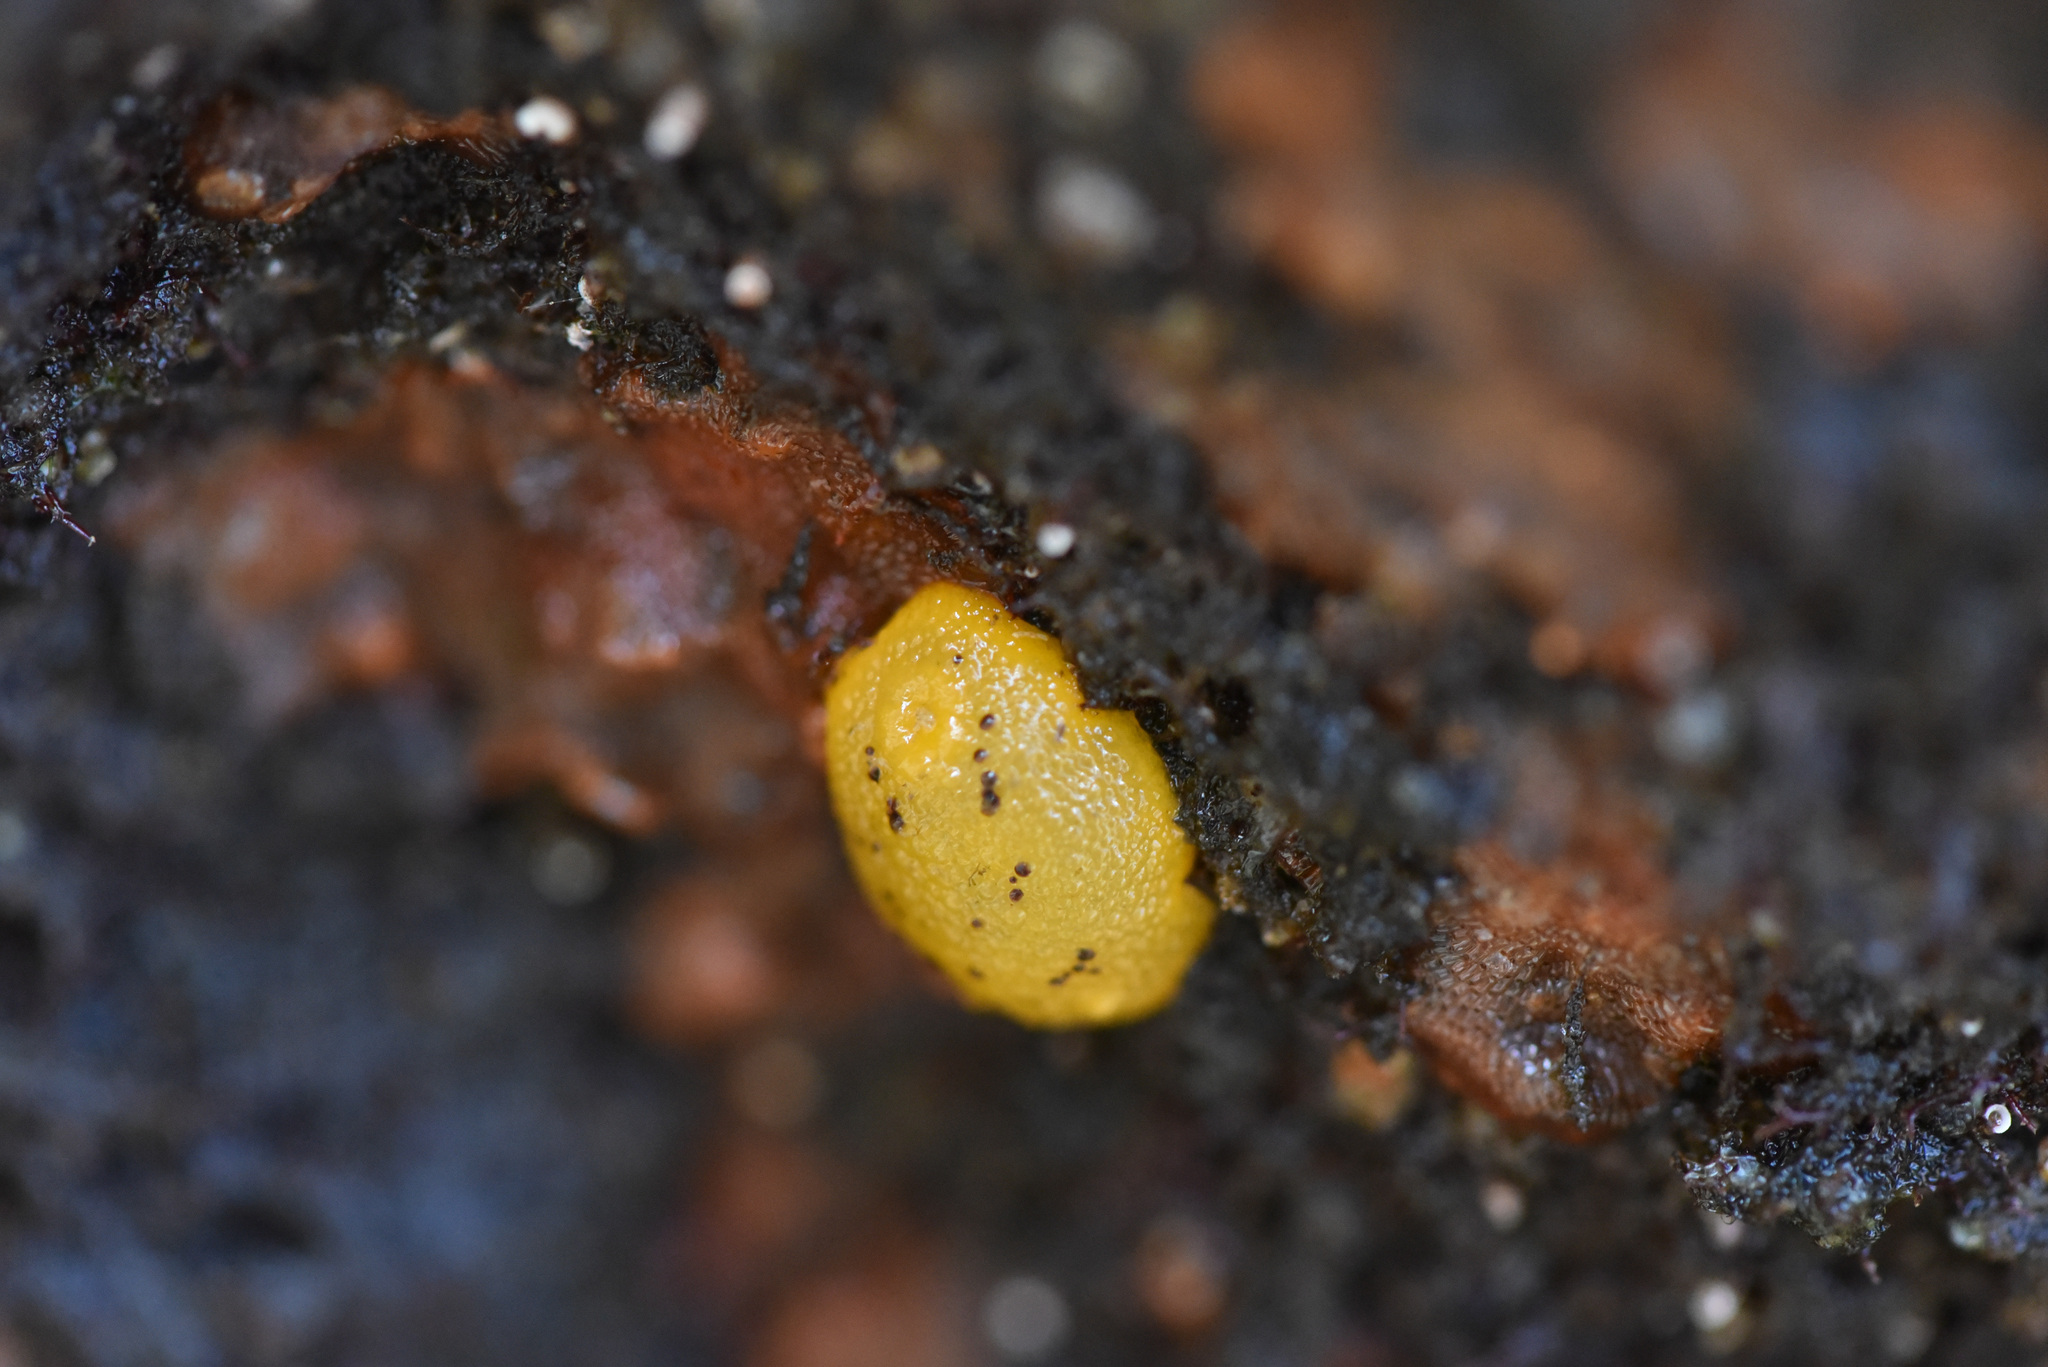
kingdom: Animalia
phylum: Mollusca
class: Gastropoda
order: Nudibranchia
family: Dorididae
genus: Doris
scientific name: Doris montereyensis
